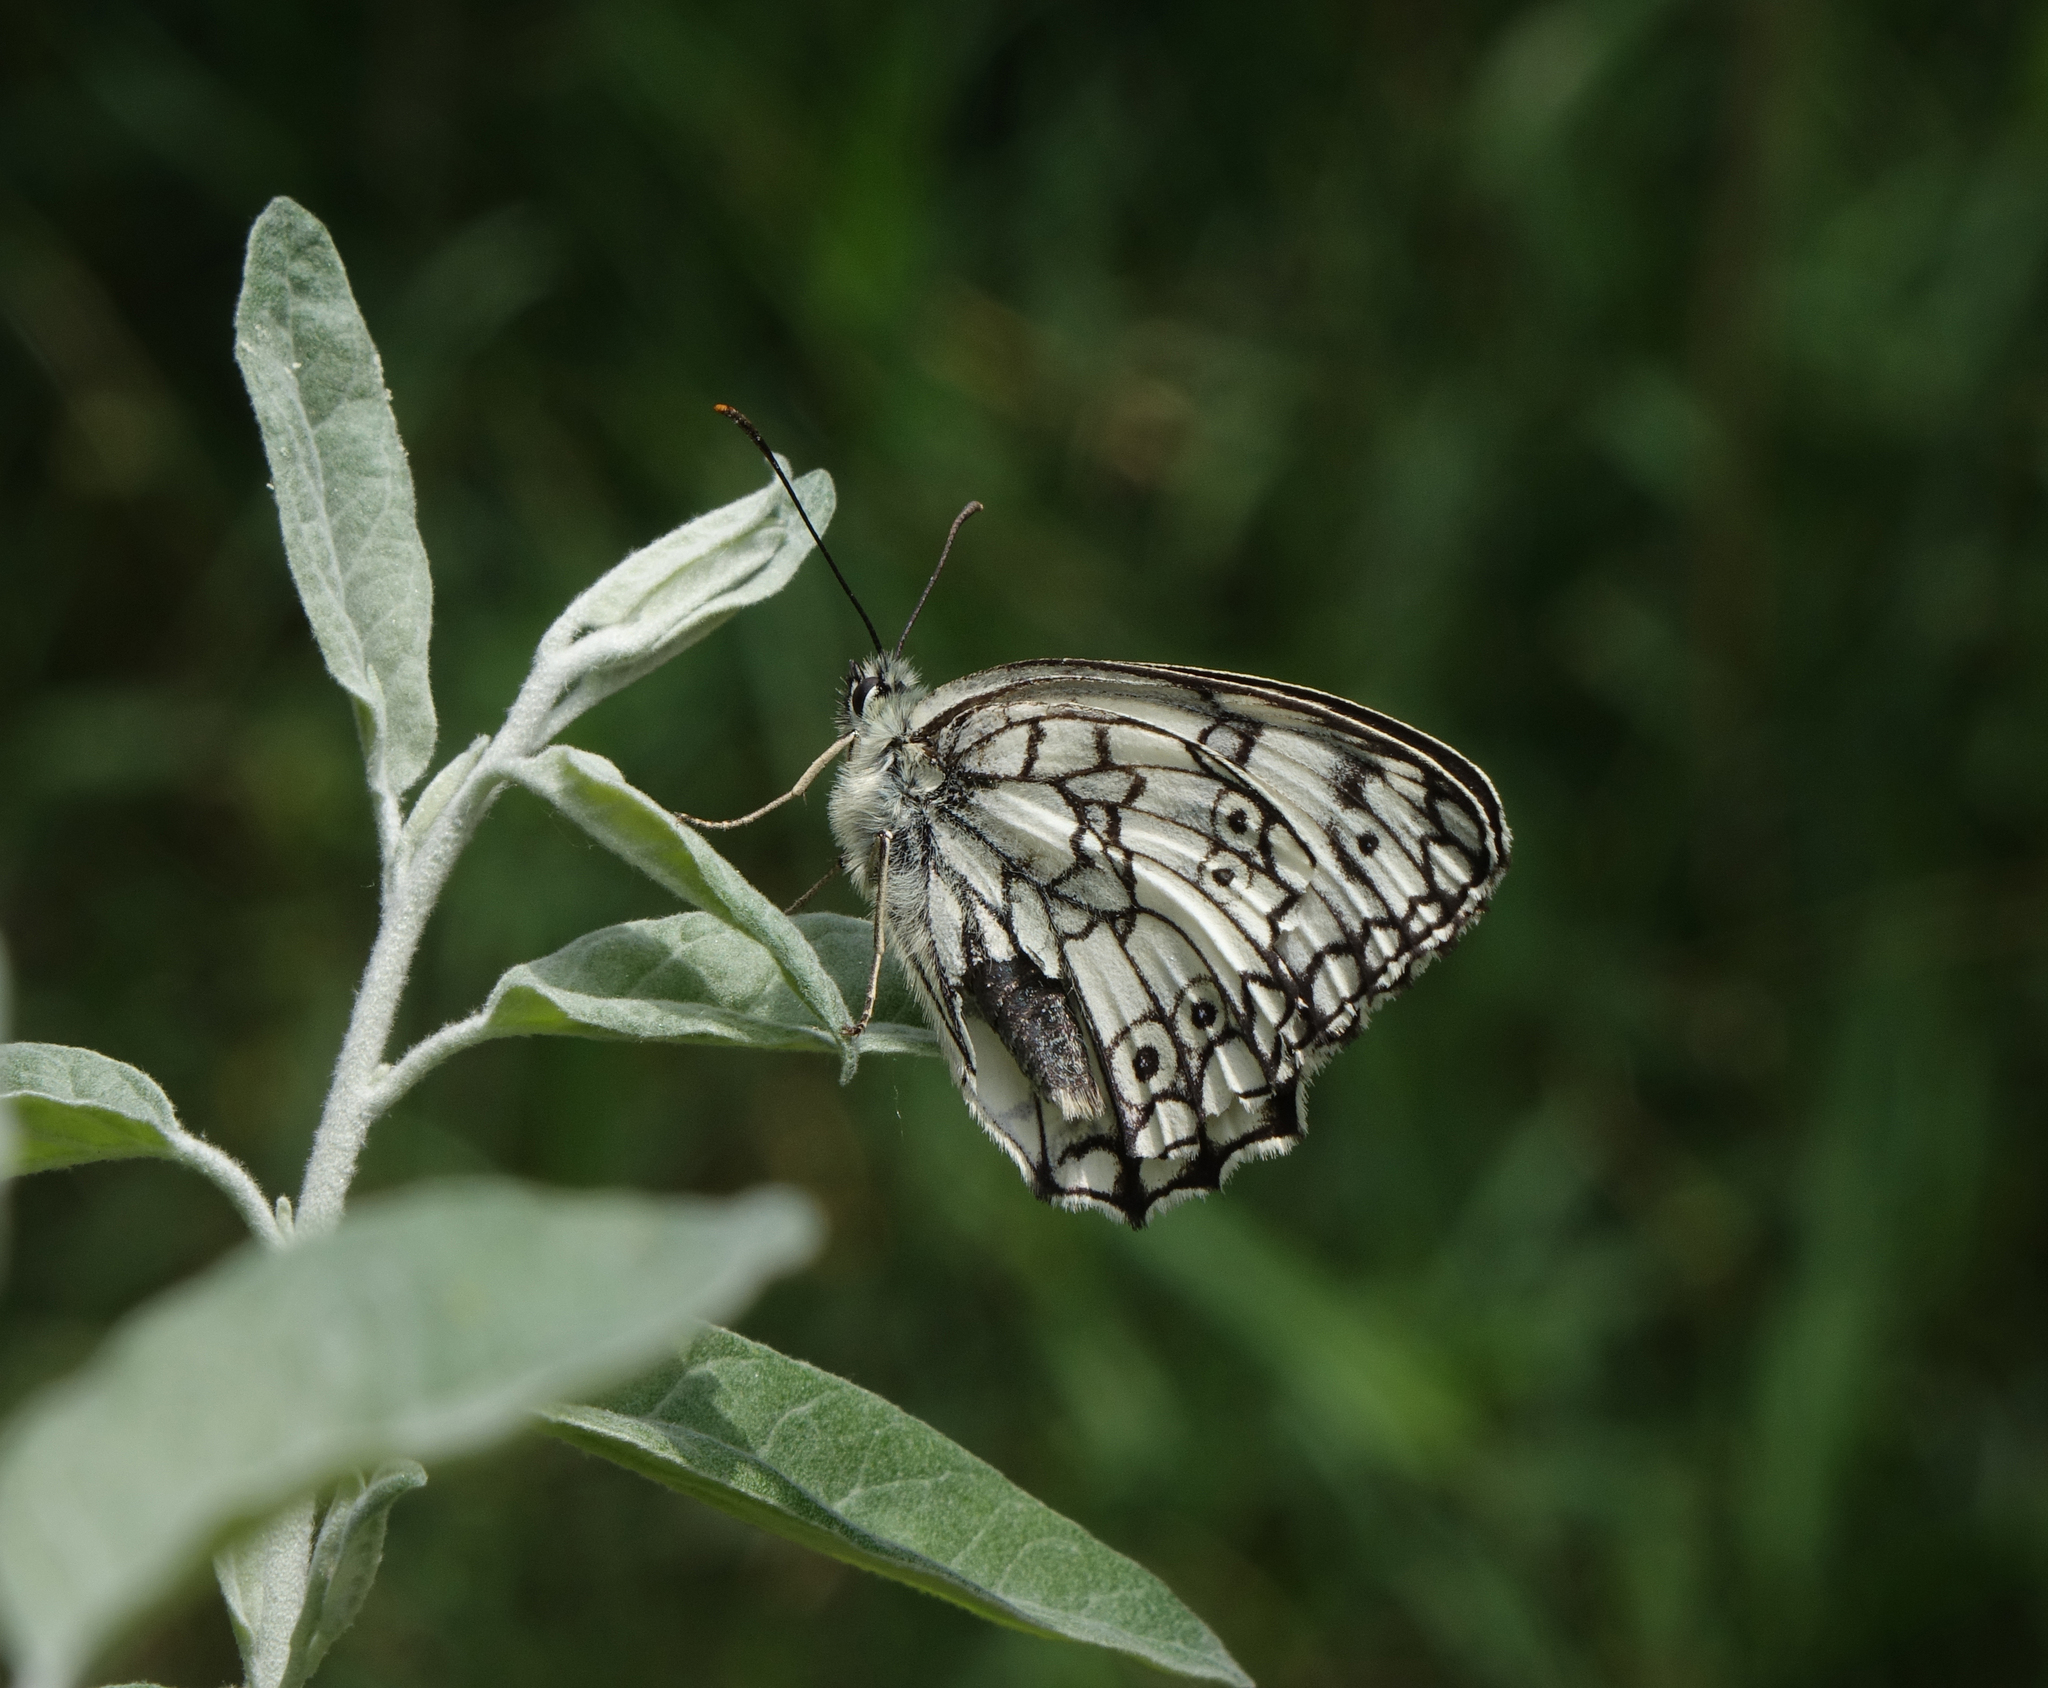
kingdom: Animalia
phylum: Arthropoda
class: Insecta
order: Lepidoptera
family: Nymphalidae
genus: Melanargia
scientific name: Melanargia japygia
